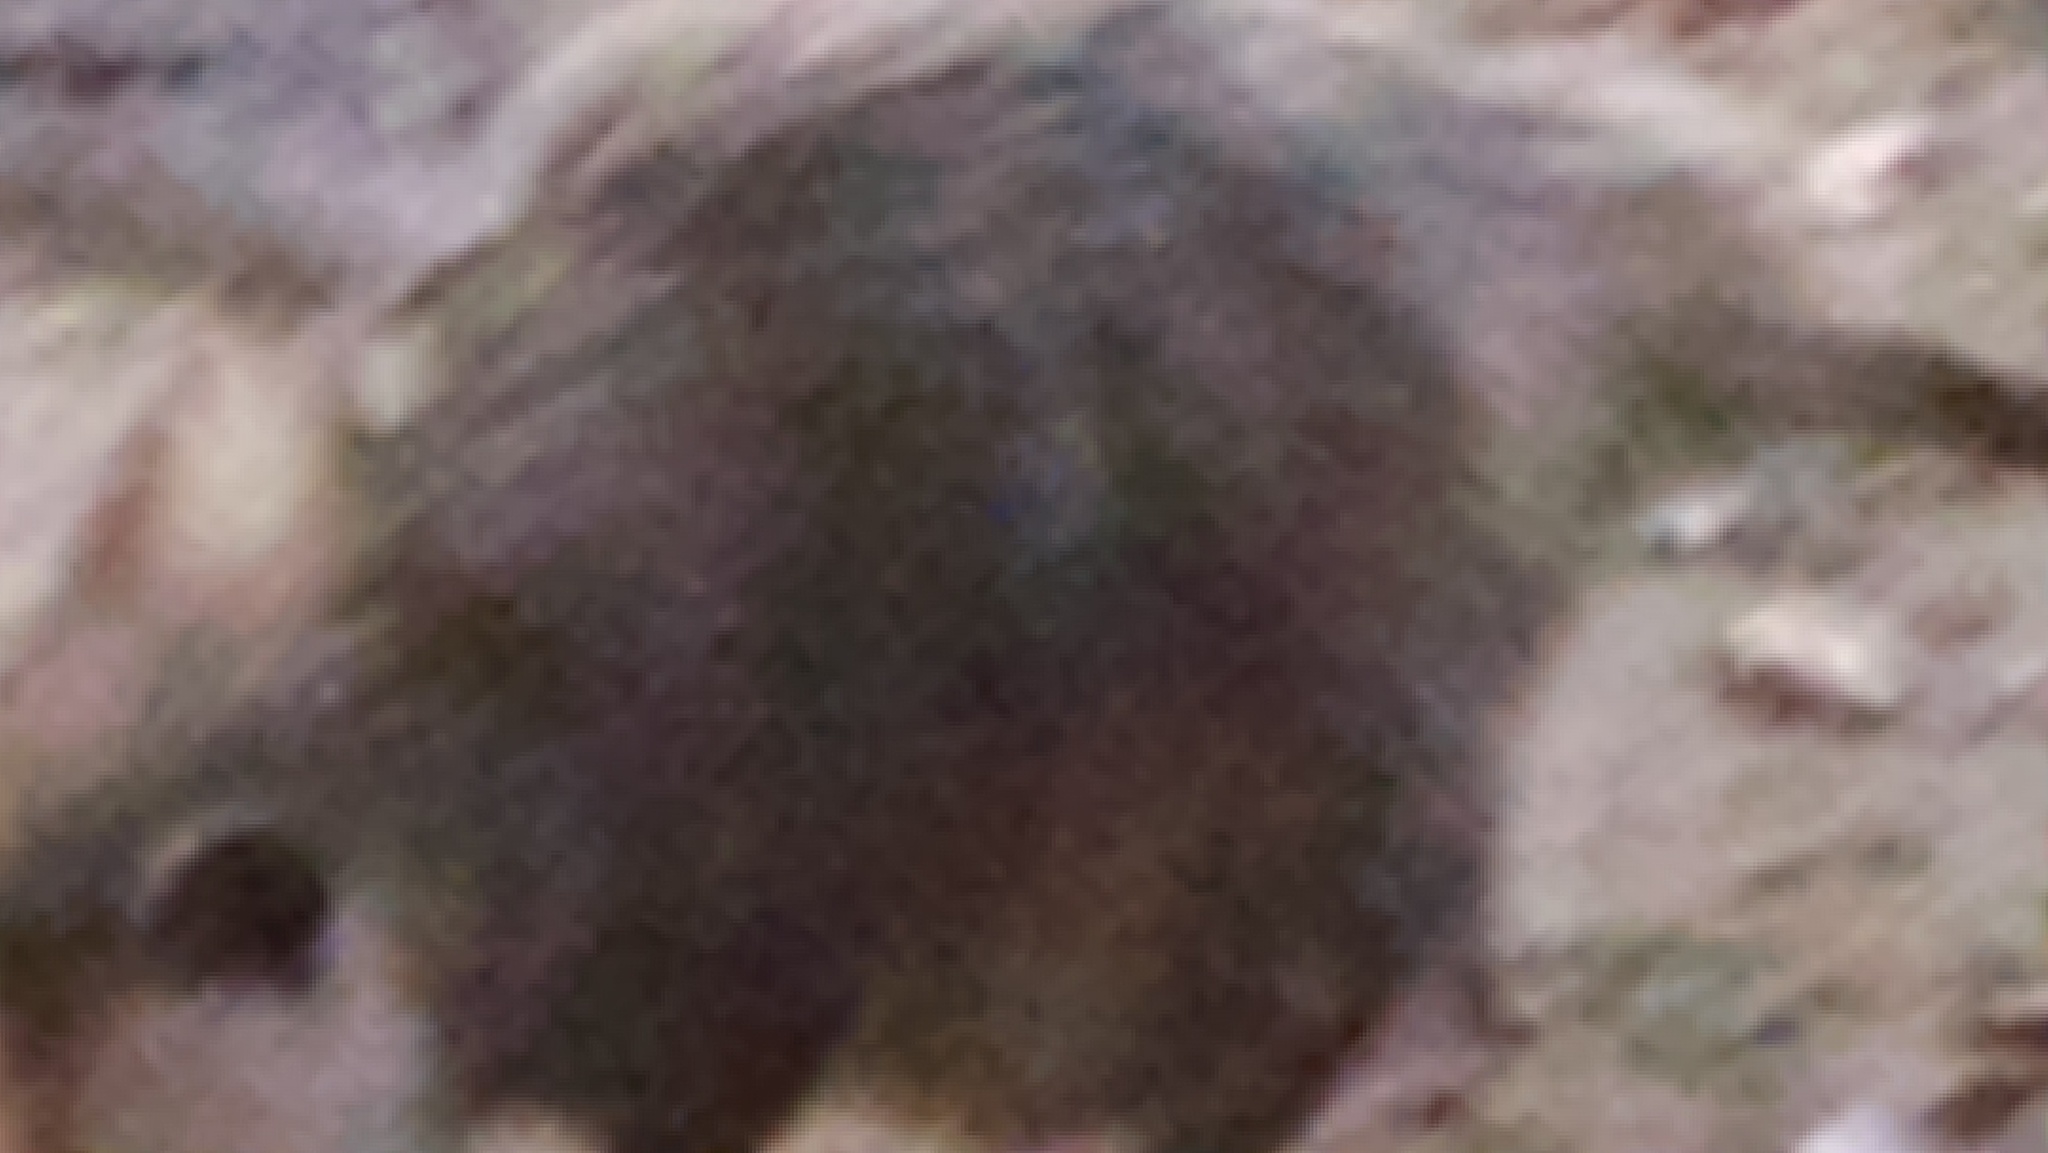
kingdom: Animalia
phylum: Chordata
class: Mammalia
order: Didelphimorphia
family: Didelphidae
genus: Didelphis
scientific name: Didelphis virginiana
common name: Virginia opossum
